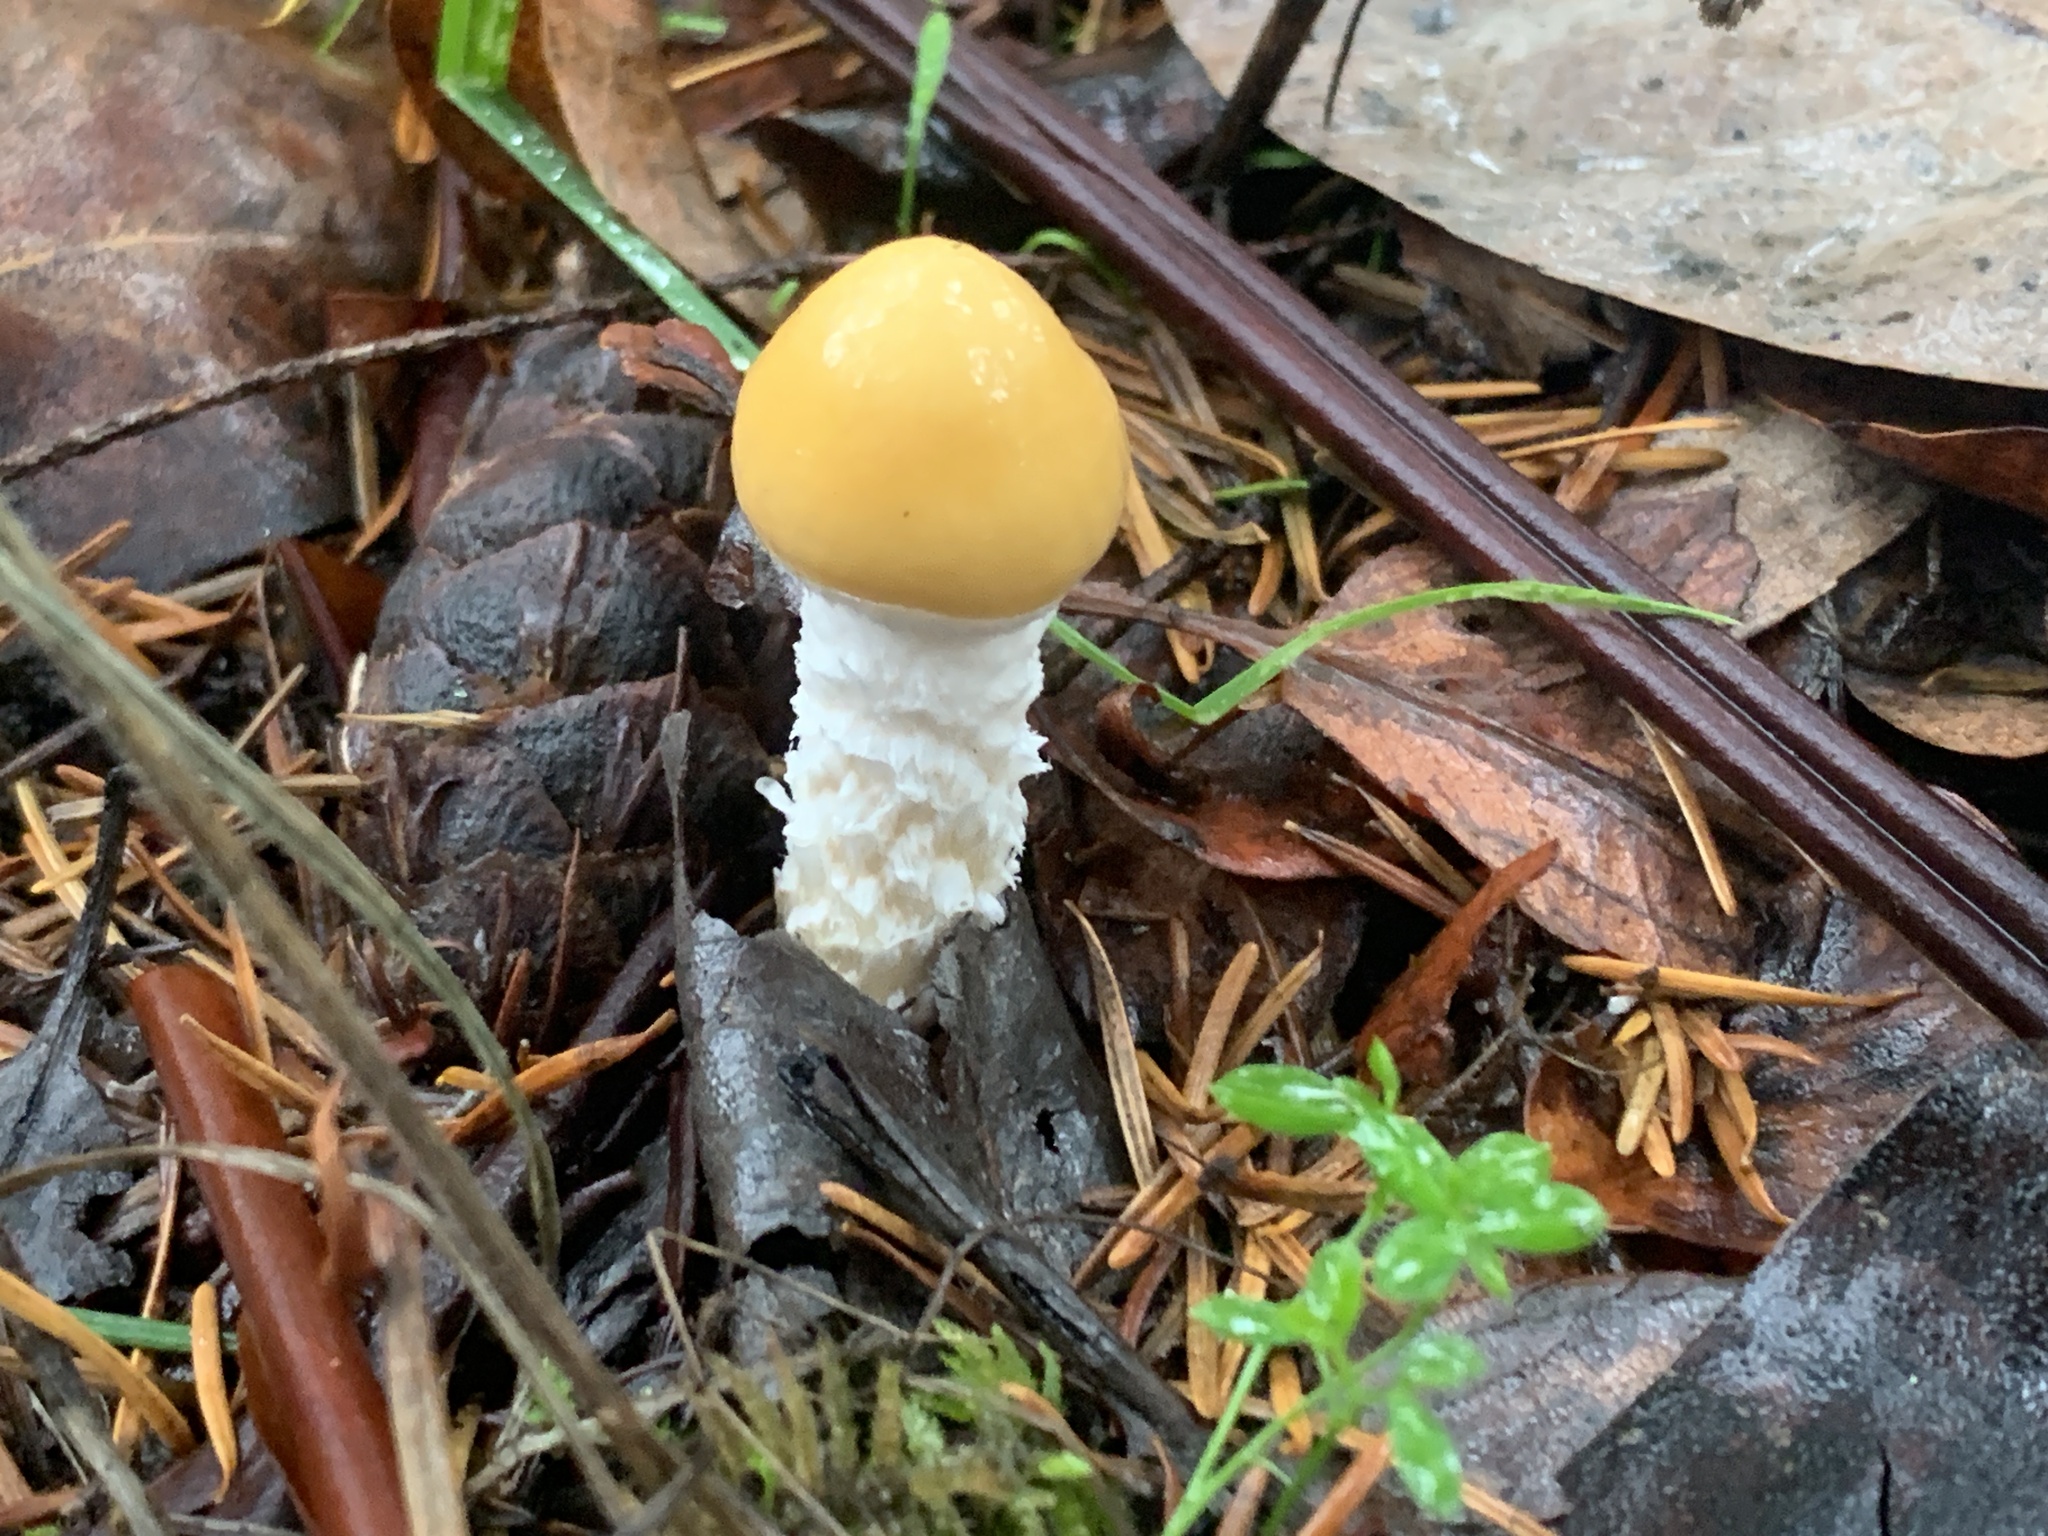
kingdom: Fungi
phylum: Basidiomycota
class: Agaricomycetes
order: Agaricales
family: Strophariaceae
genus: Stropharia
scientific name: Stropharia ambigua
